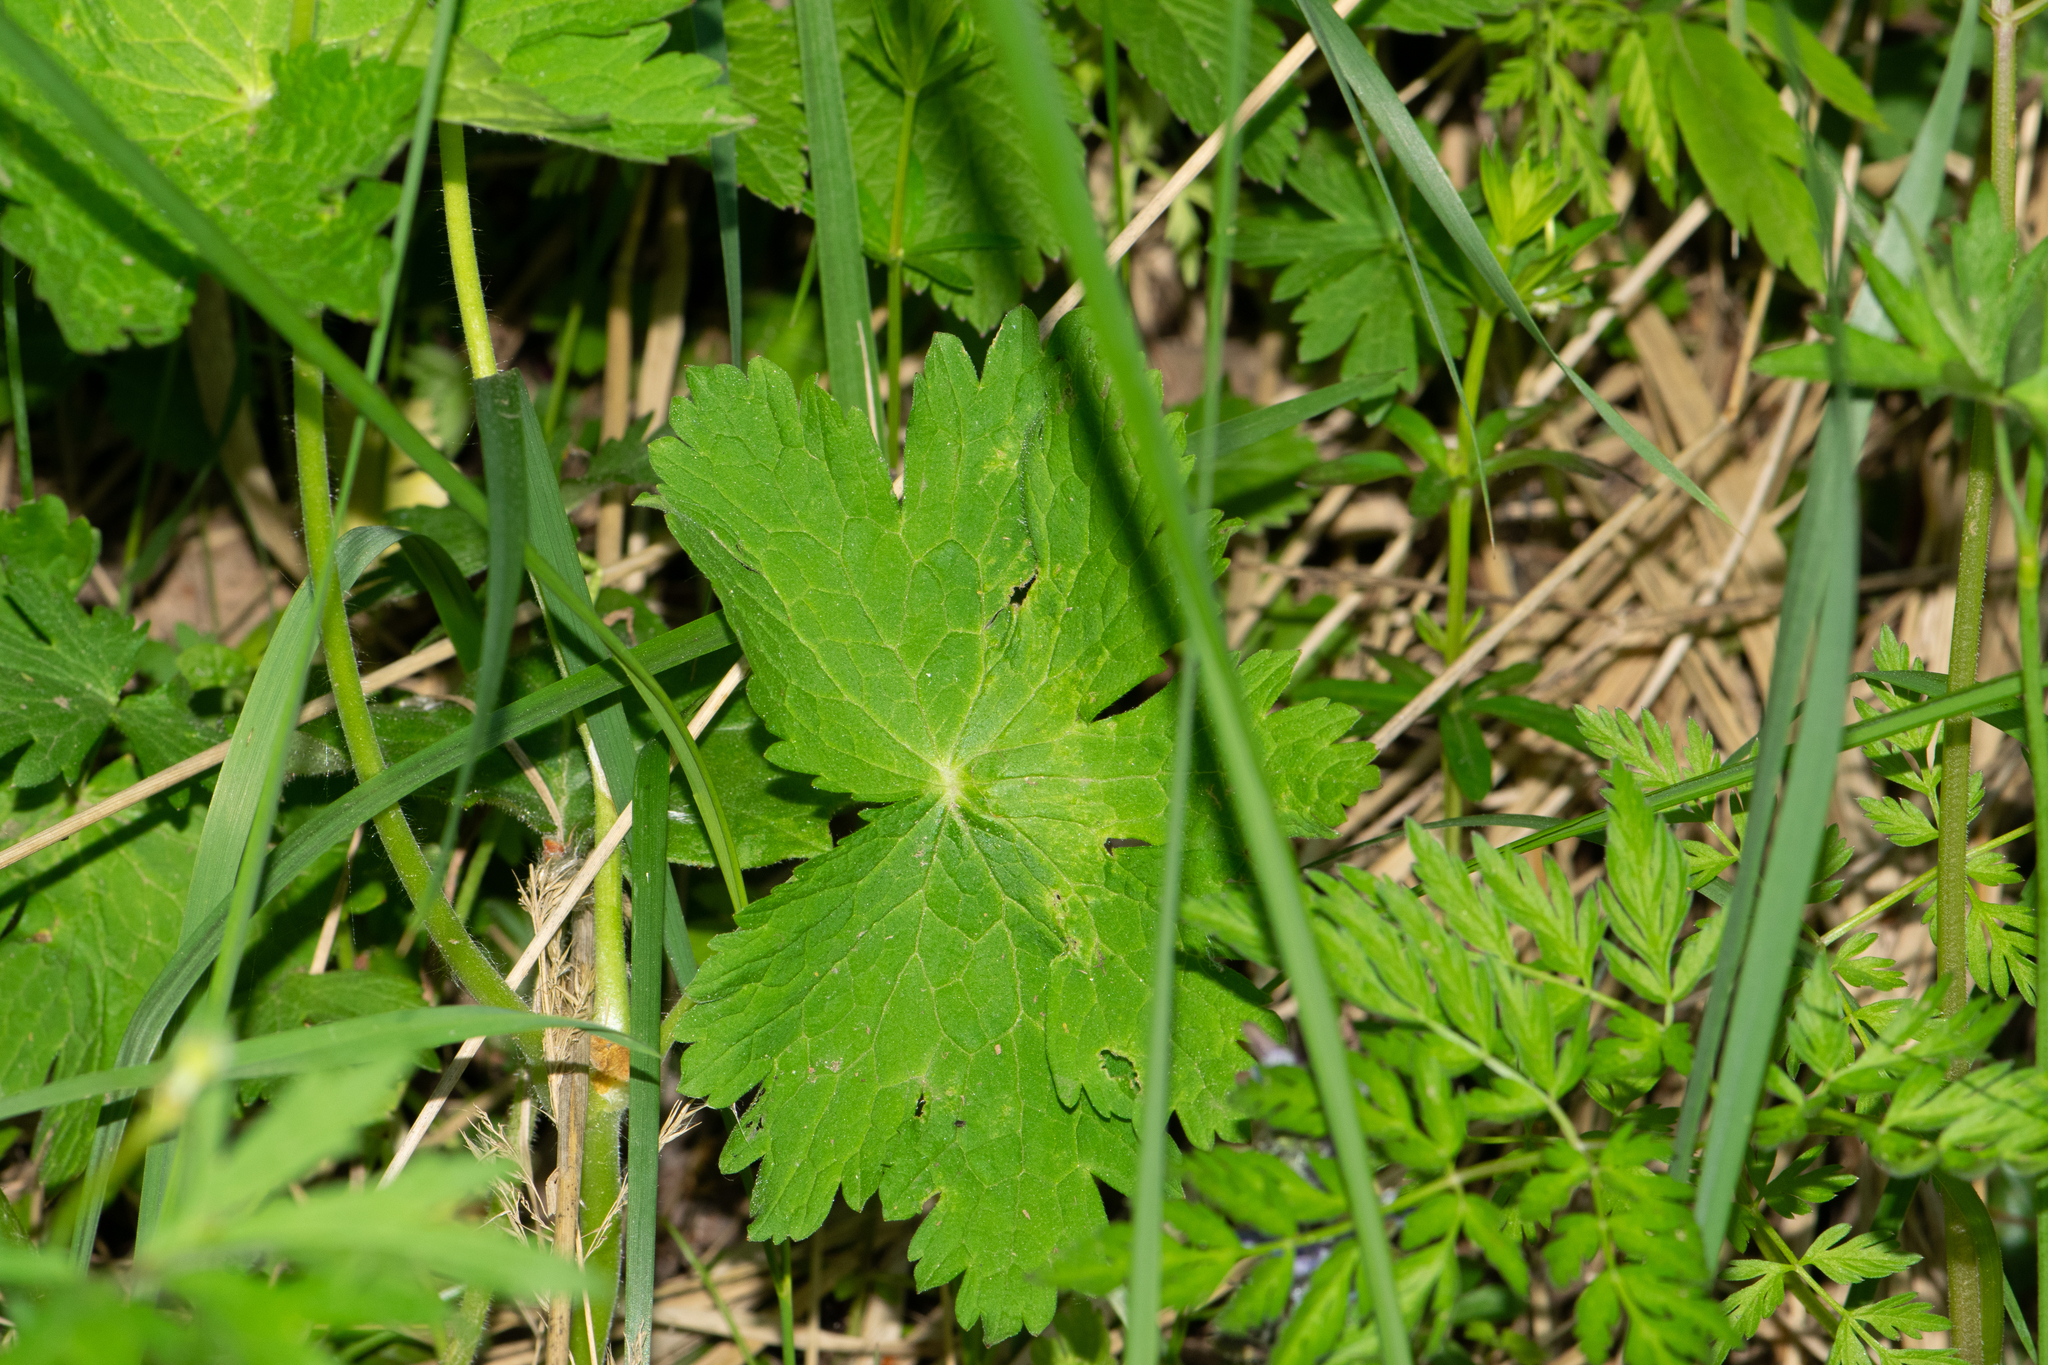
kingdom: Plantae
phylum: Tracheophyta
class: Magnoliopsida
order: Geraniales
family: Geraniaceae
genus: Geranium
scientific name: Geranium phaeum
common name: Dusky crane's-bill
